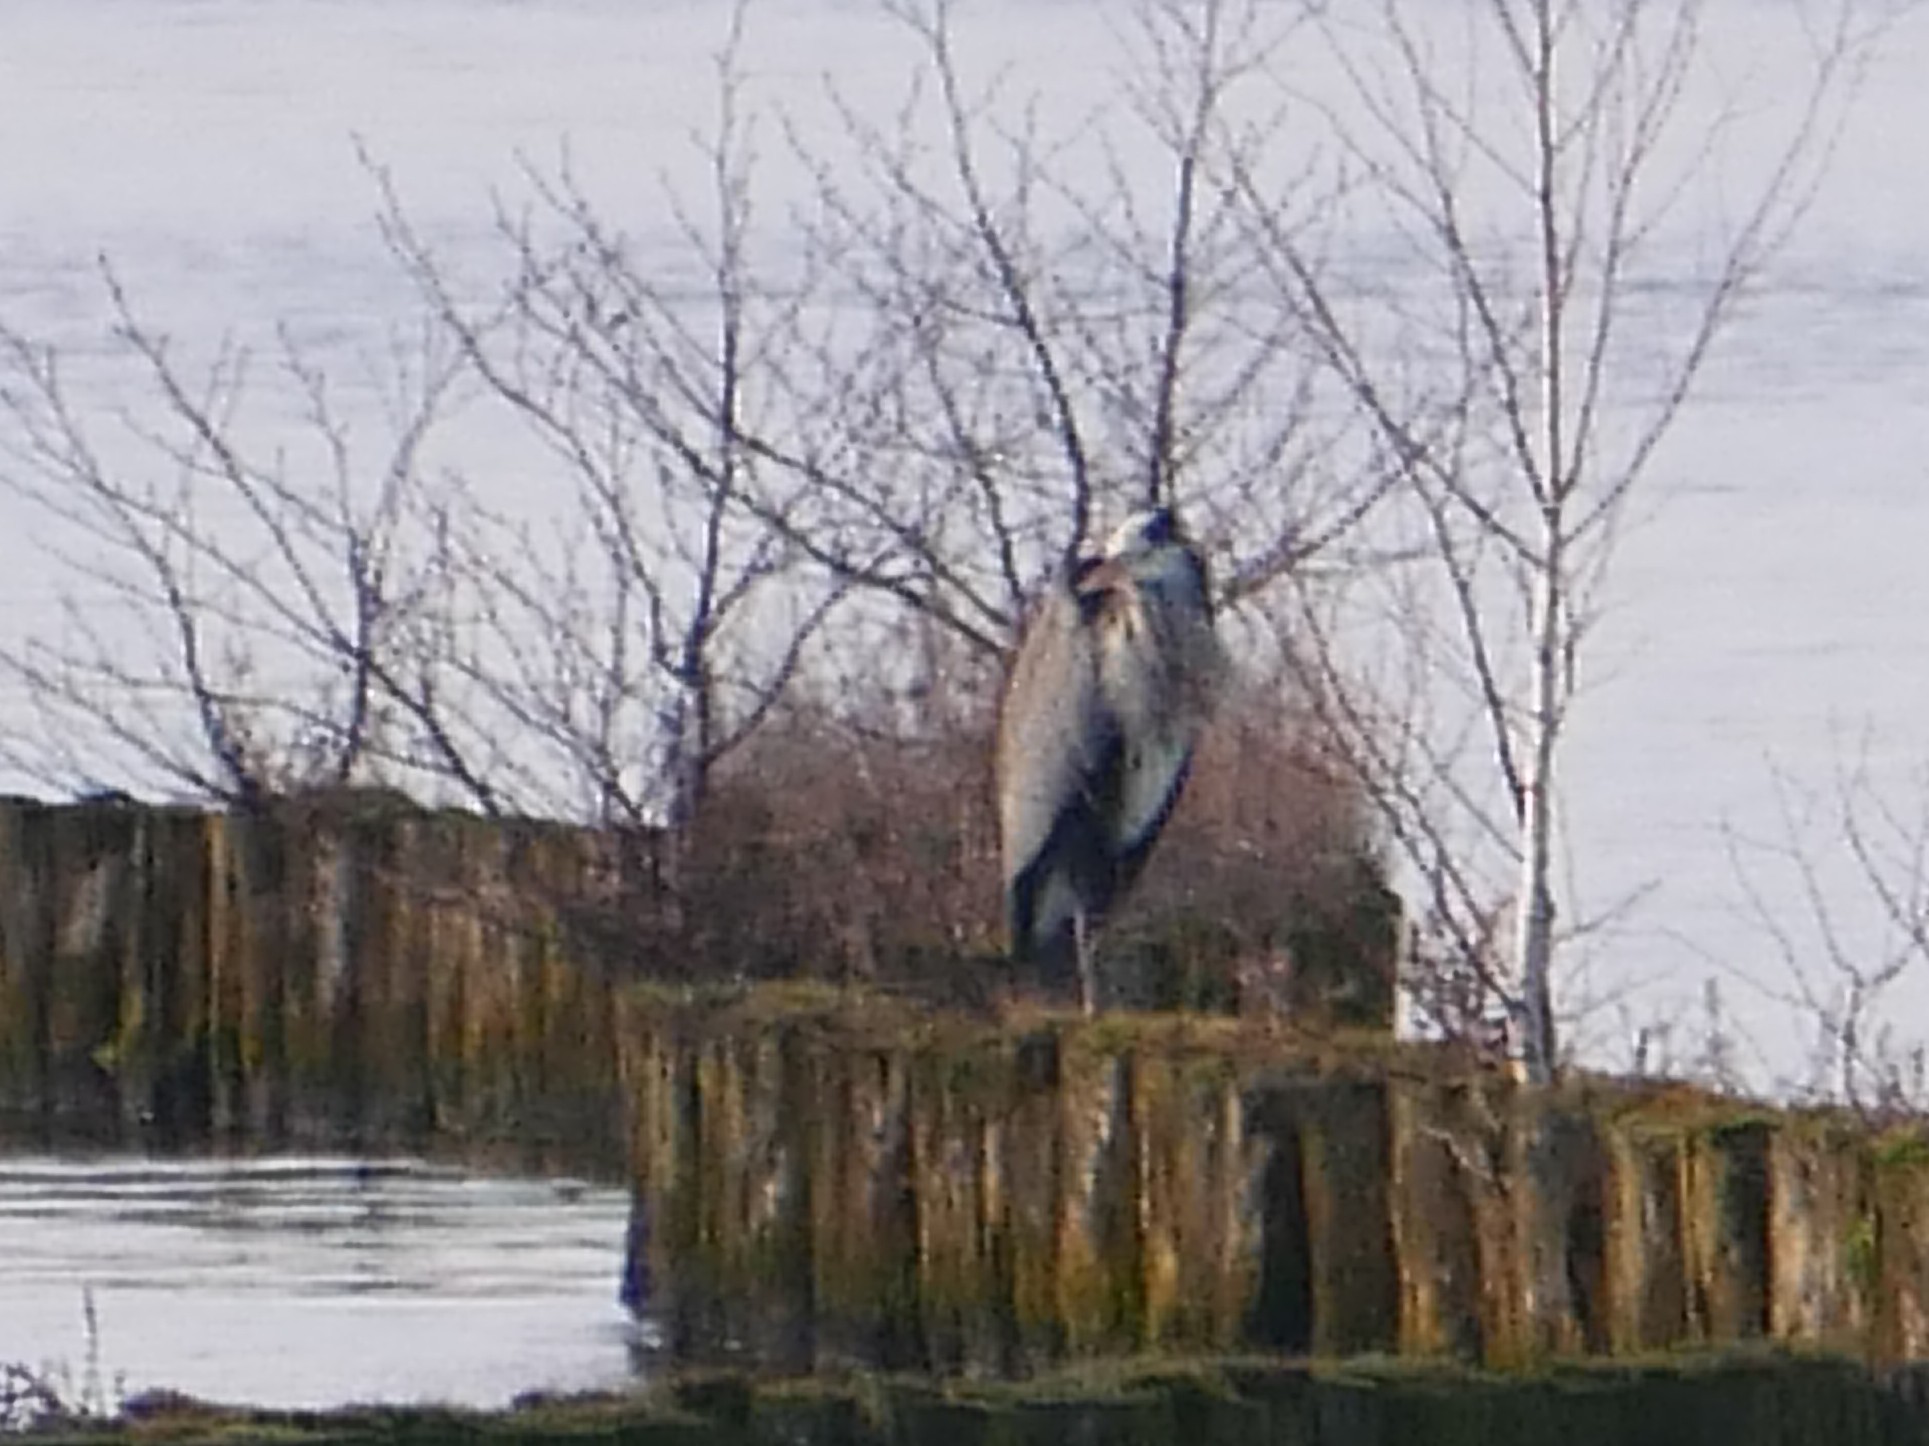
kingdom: Animalia
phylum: Chordata
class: Aves
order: Pelecaniformes
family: Ardeidae
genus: Ardea
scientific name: Ardea cinerea
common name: Grey heron
